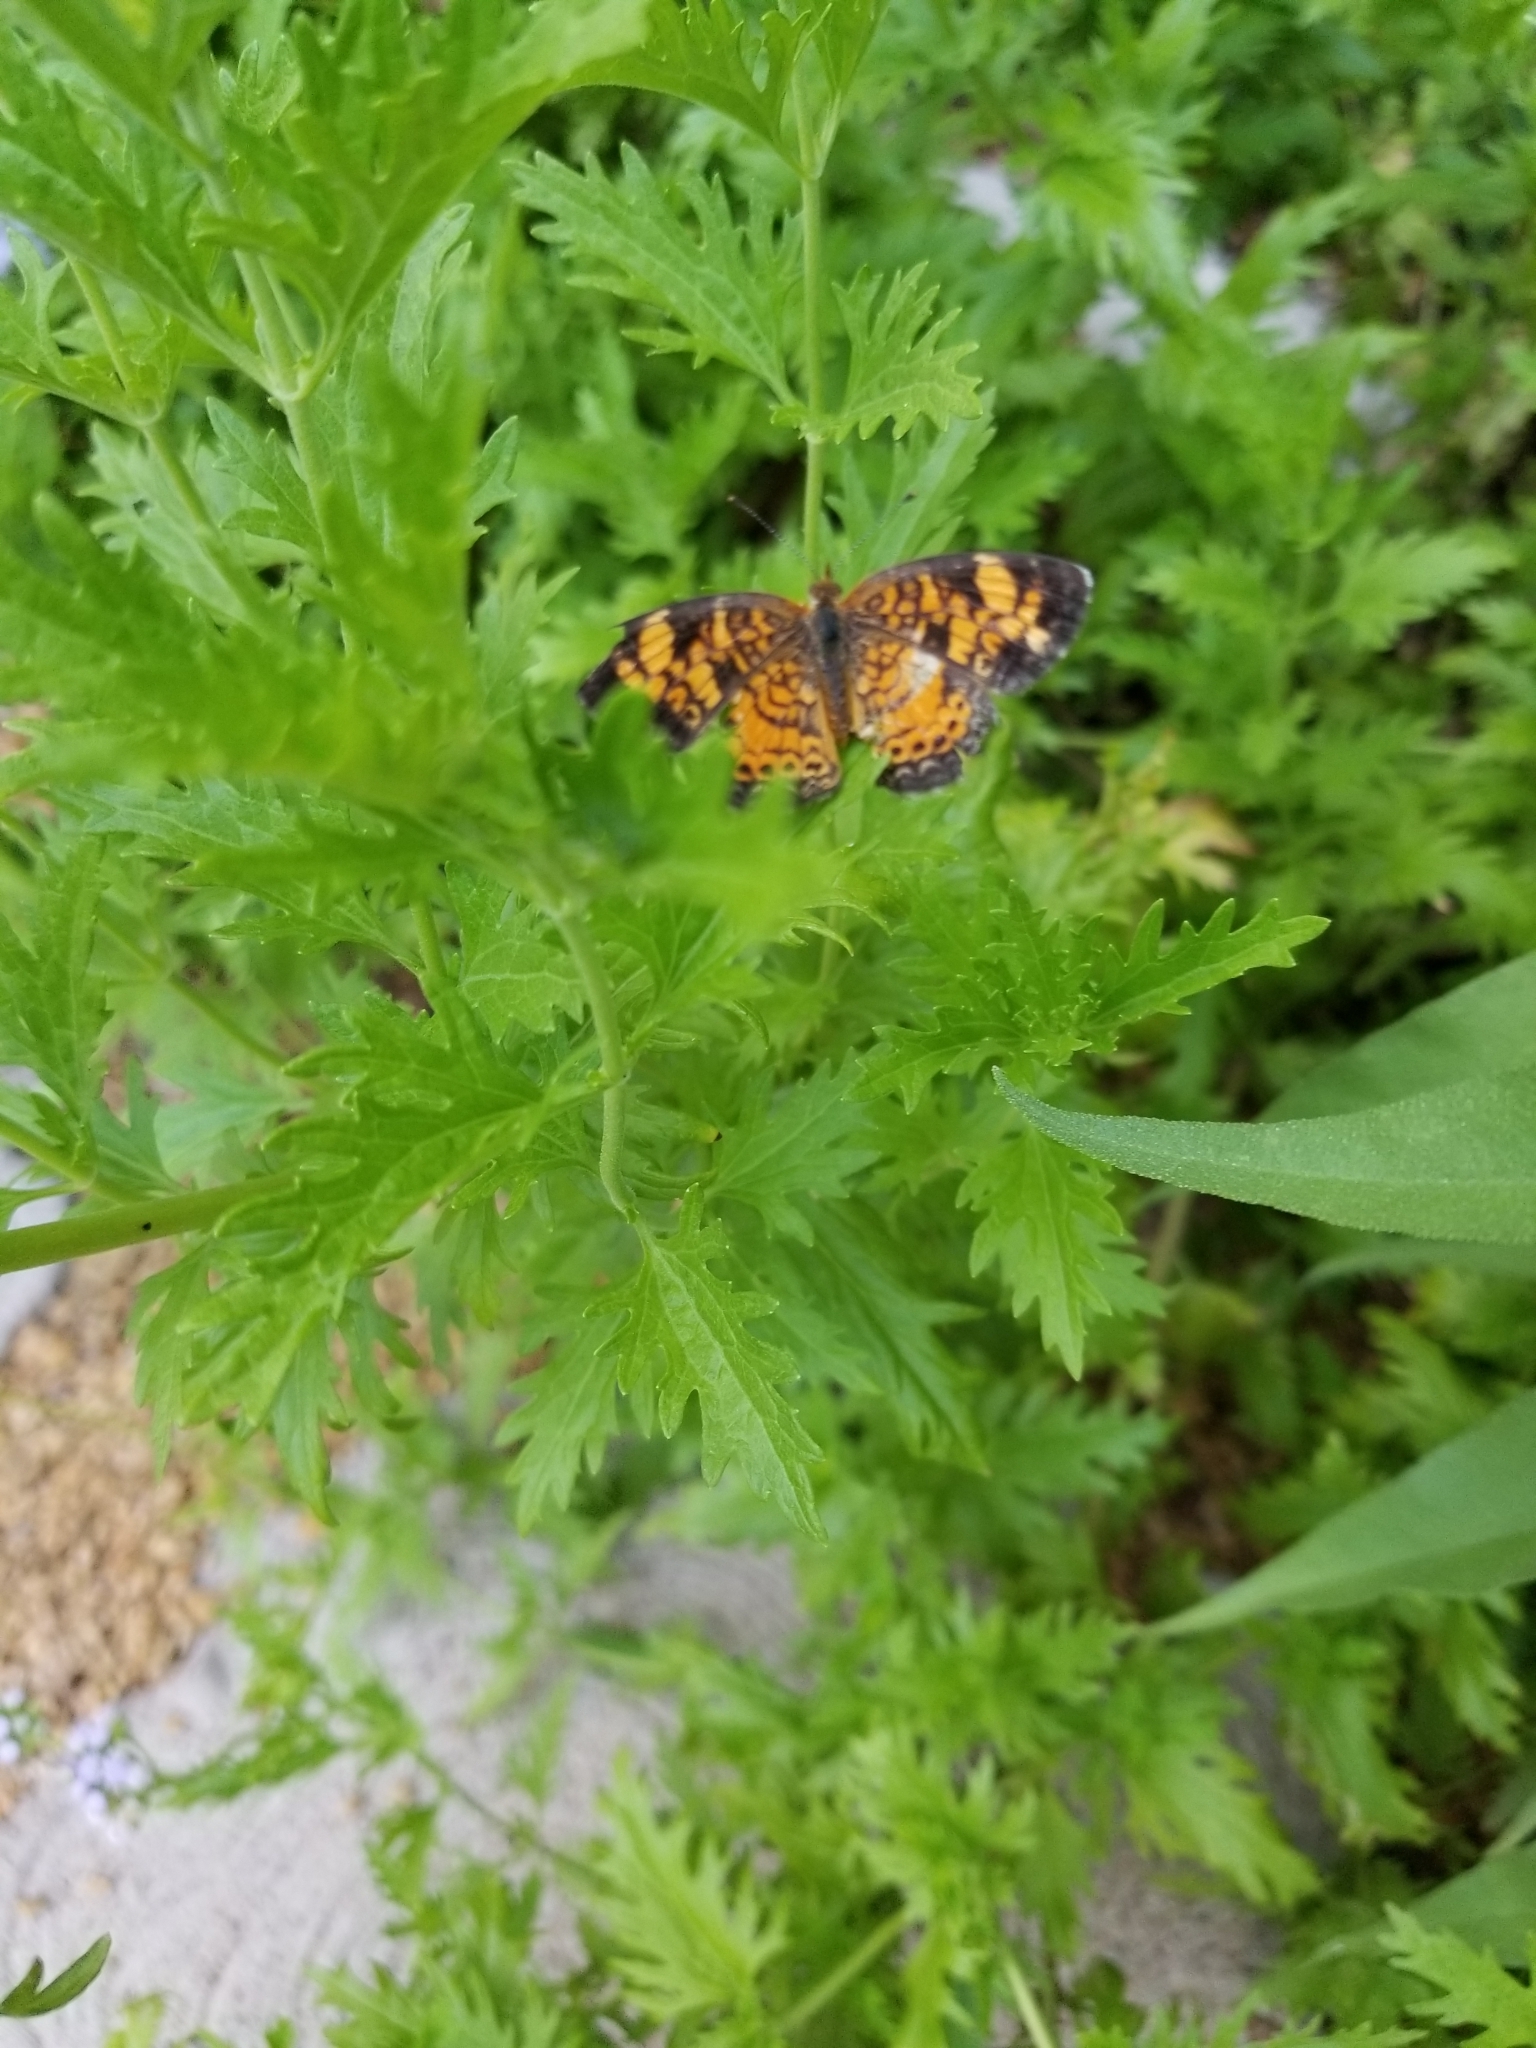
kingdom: Animalia
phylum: Arthropoda
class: Insecta
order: Lepidoptera
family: Nymphalidae
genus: Phyciodes
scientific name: Phyciodes tharos
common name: Pearl crescent
